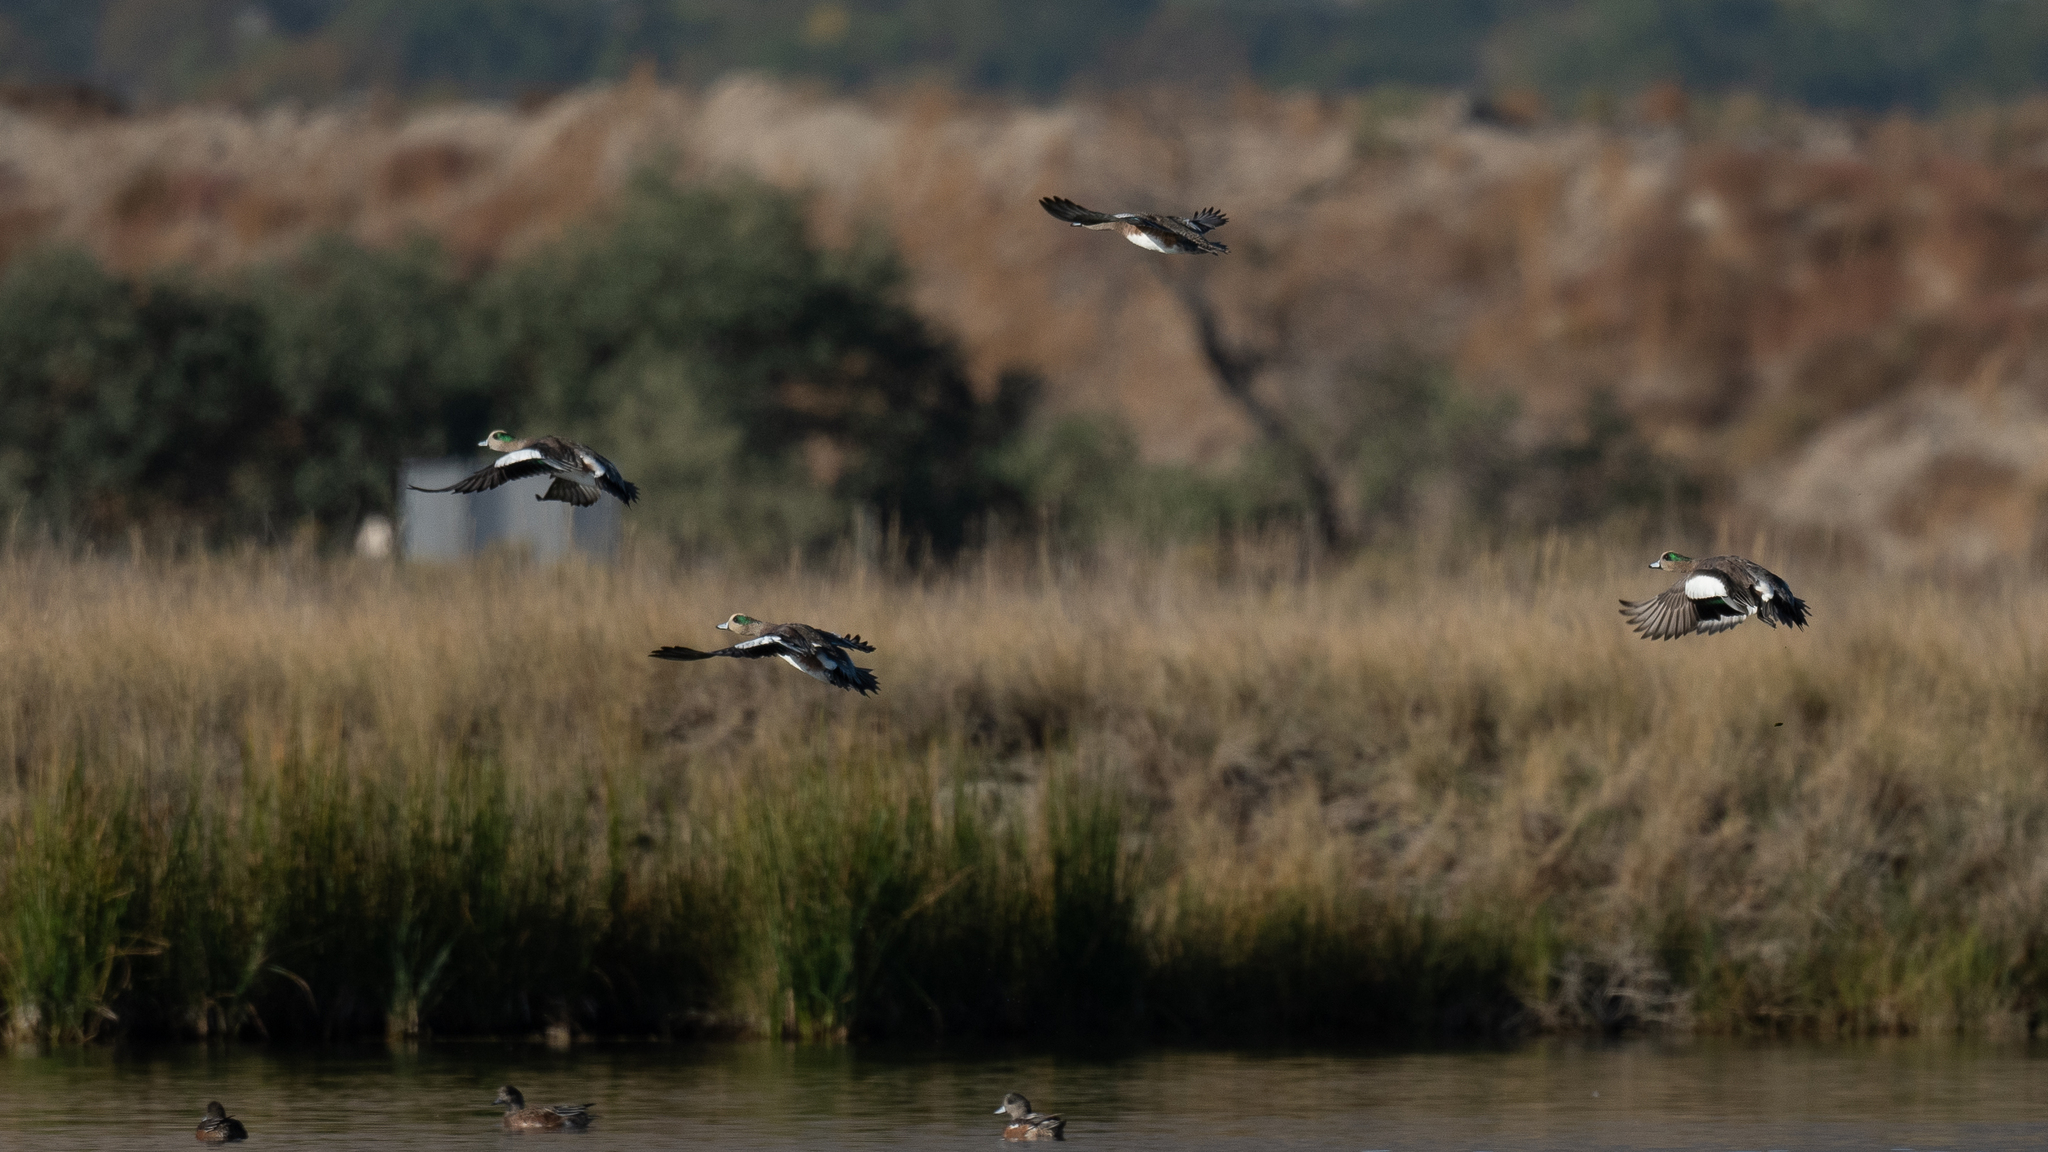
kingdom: Animalia
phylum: Chordata
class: Aves
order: Anseriformes
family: Anatidae
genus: Mareca
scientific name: Mareca americana
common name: American wigeon
